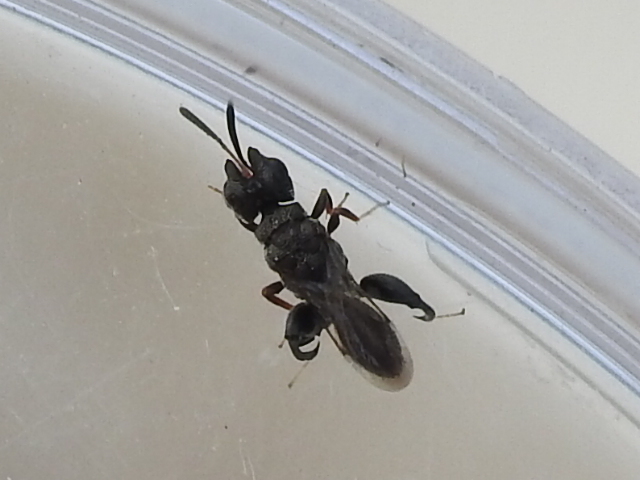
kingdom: Animalia
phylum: Arthropoda
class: Insecta
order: Hymenoptera
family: Chalcididae
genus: Dirhinus
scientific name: Dirhinus texanus
